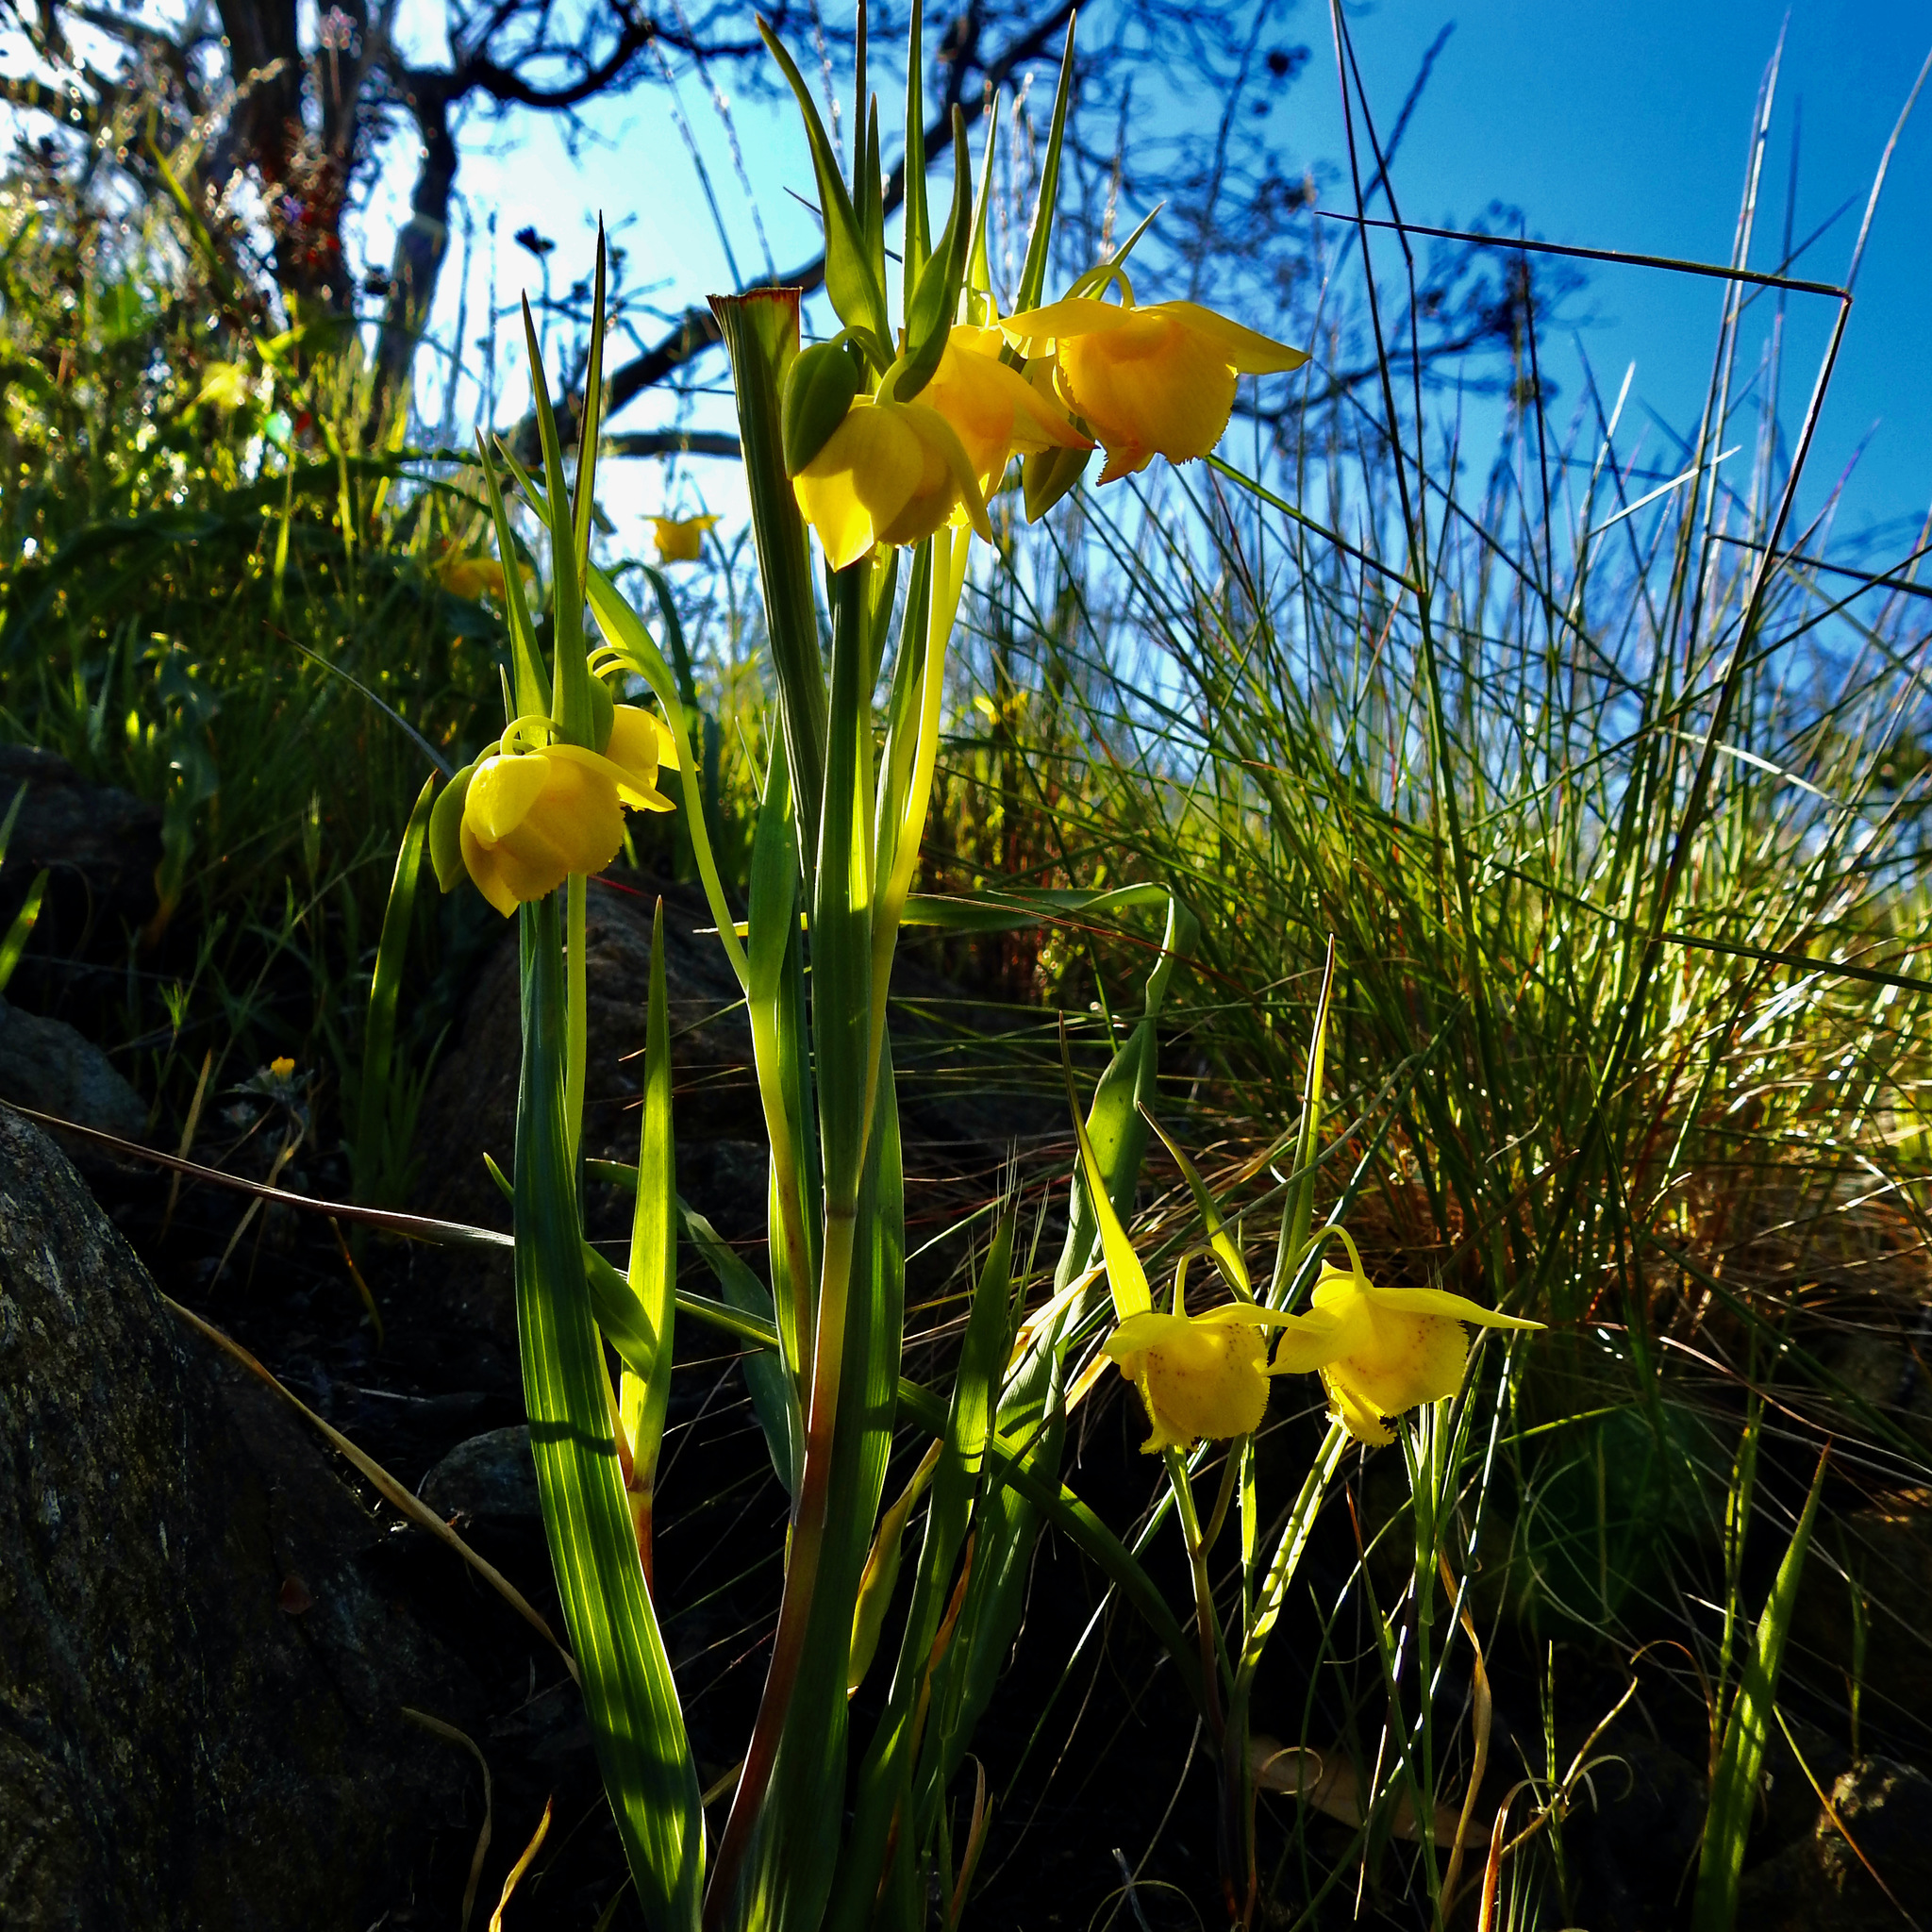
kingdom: Plantae
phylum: Tracheophyta
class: Liliopsida
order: Liliales
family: Liliaceae
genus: Calochortus
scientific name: Calochortus amabilis
